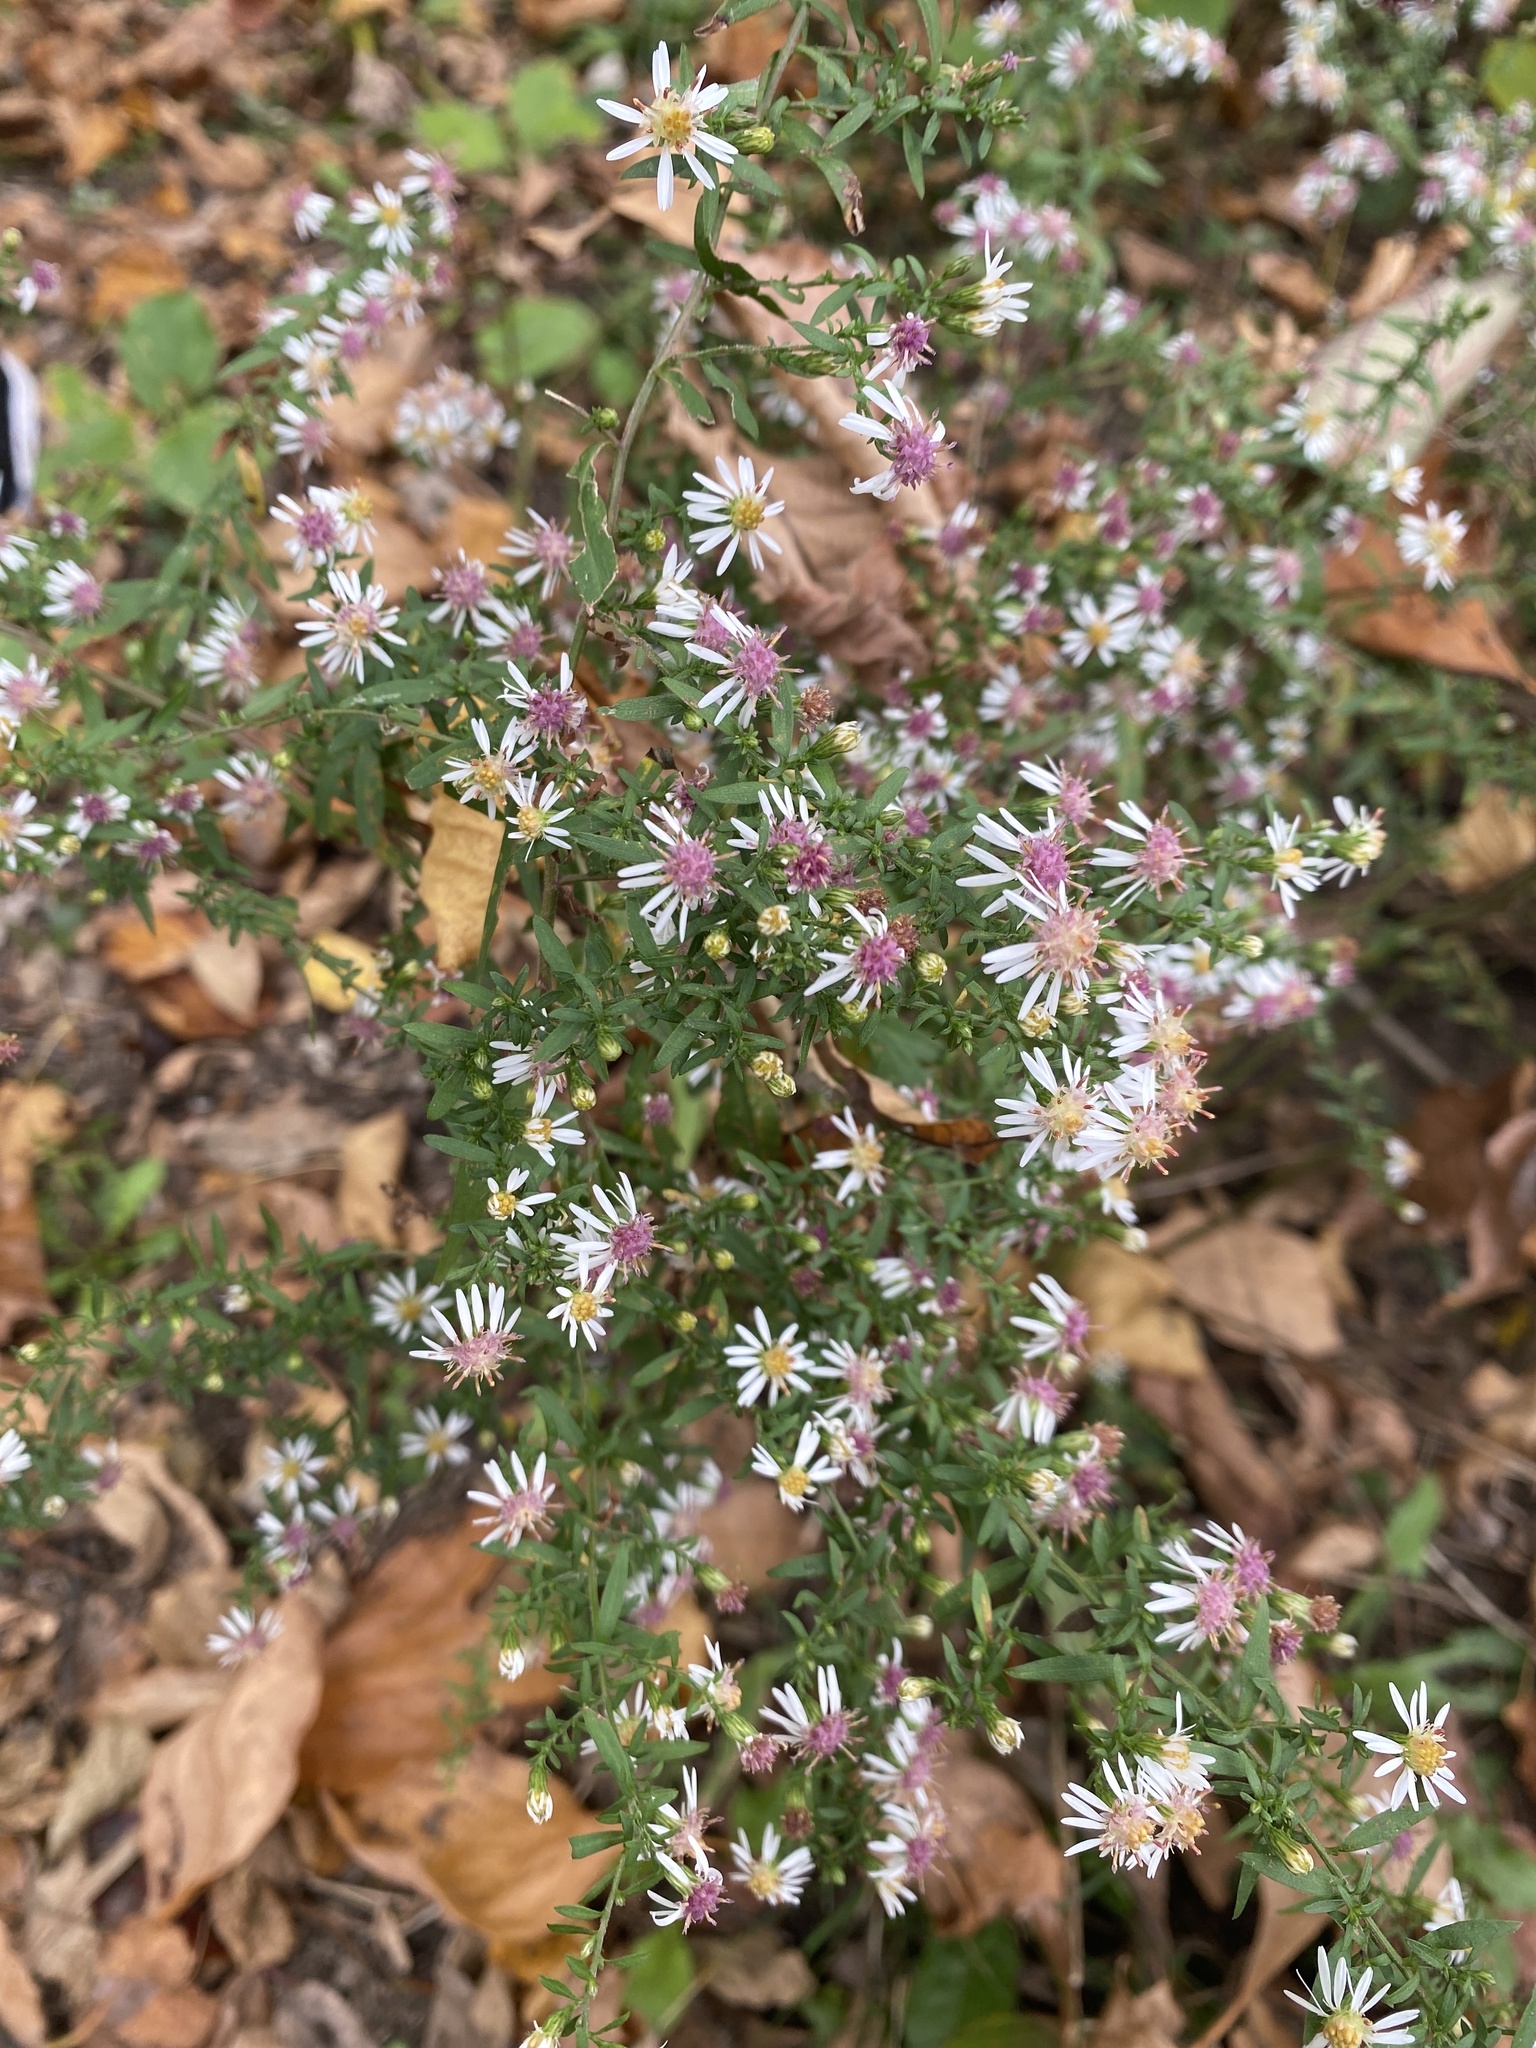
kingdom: Plantae
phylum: Tracheophyta
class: Magnoliopsida
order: Asterales
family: Asteraceae
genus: Symphyotrichum
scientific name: Symphyotrichum lateriflorum
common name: Calico aster
